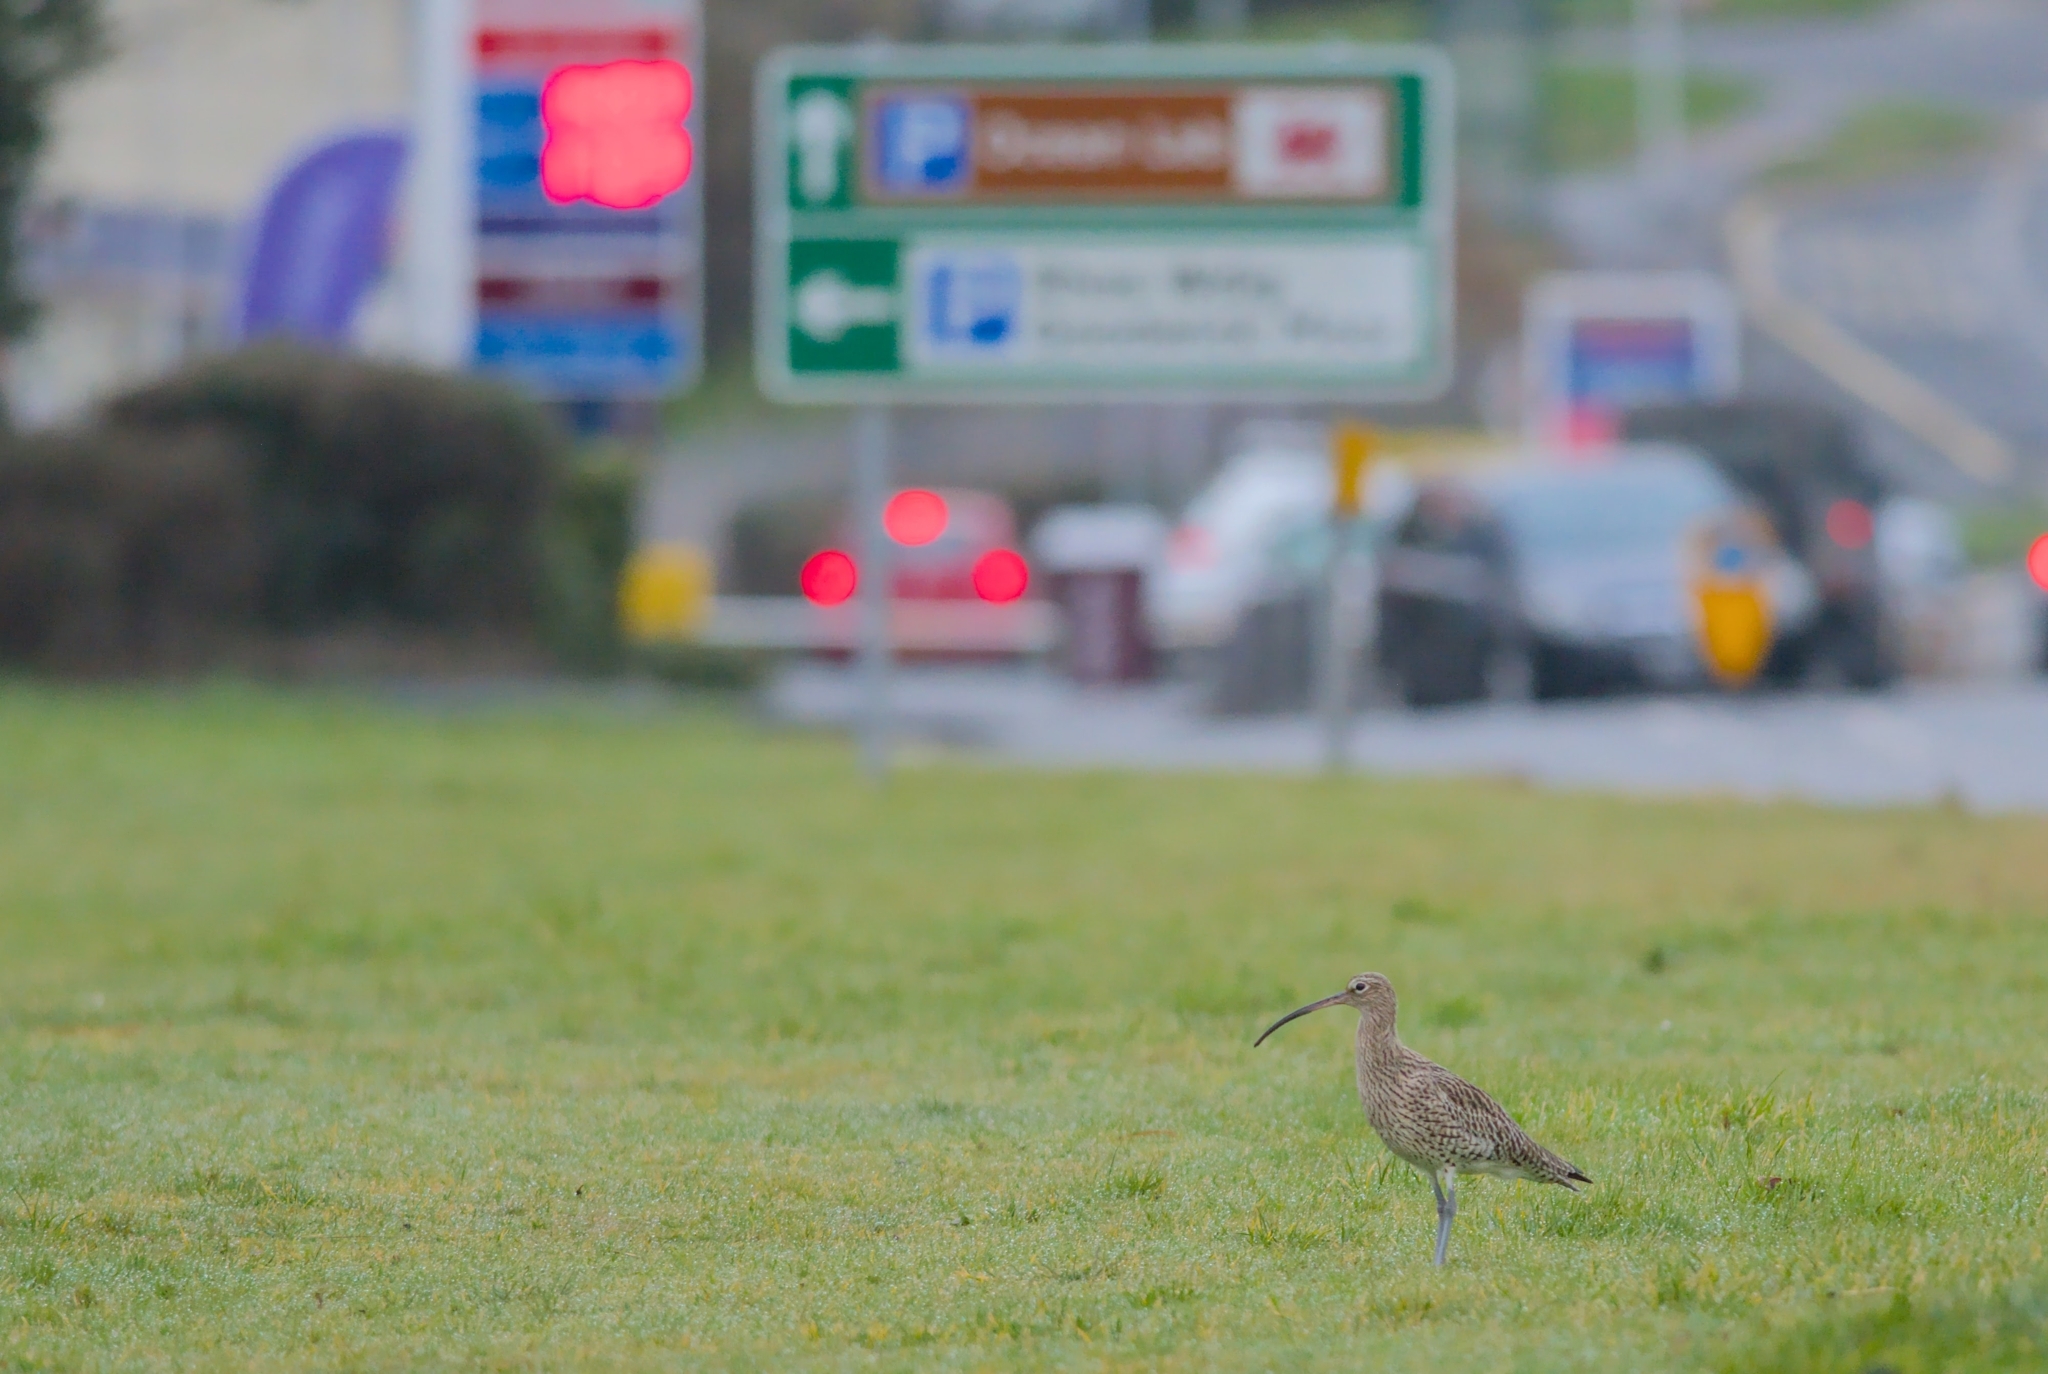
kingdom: Animalia
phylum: Chordata
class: Aves
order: Charadriiformes
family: Scolopacidae
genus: Numenius
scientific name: Numenius arquata
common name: Eurasian curlew
